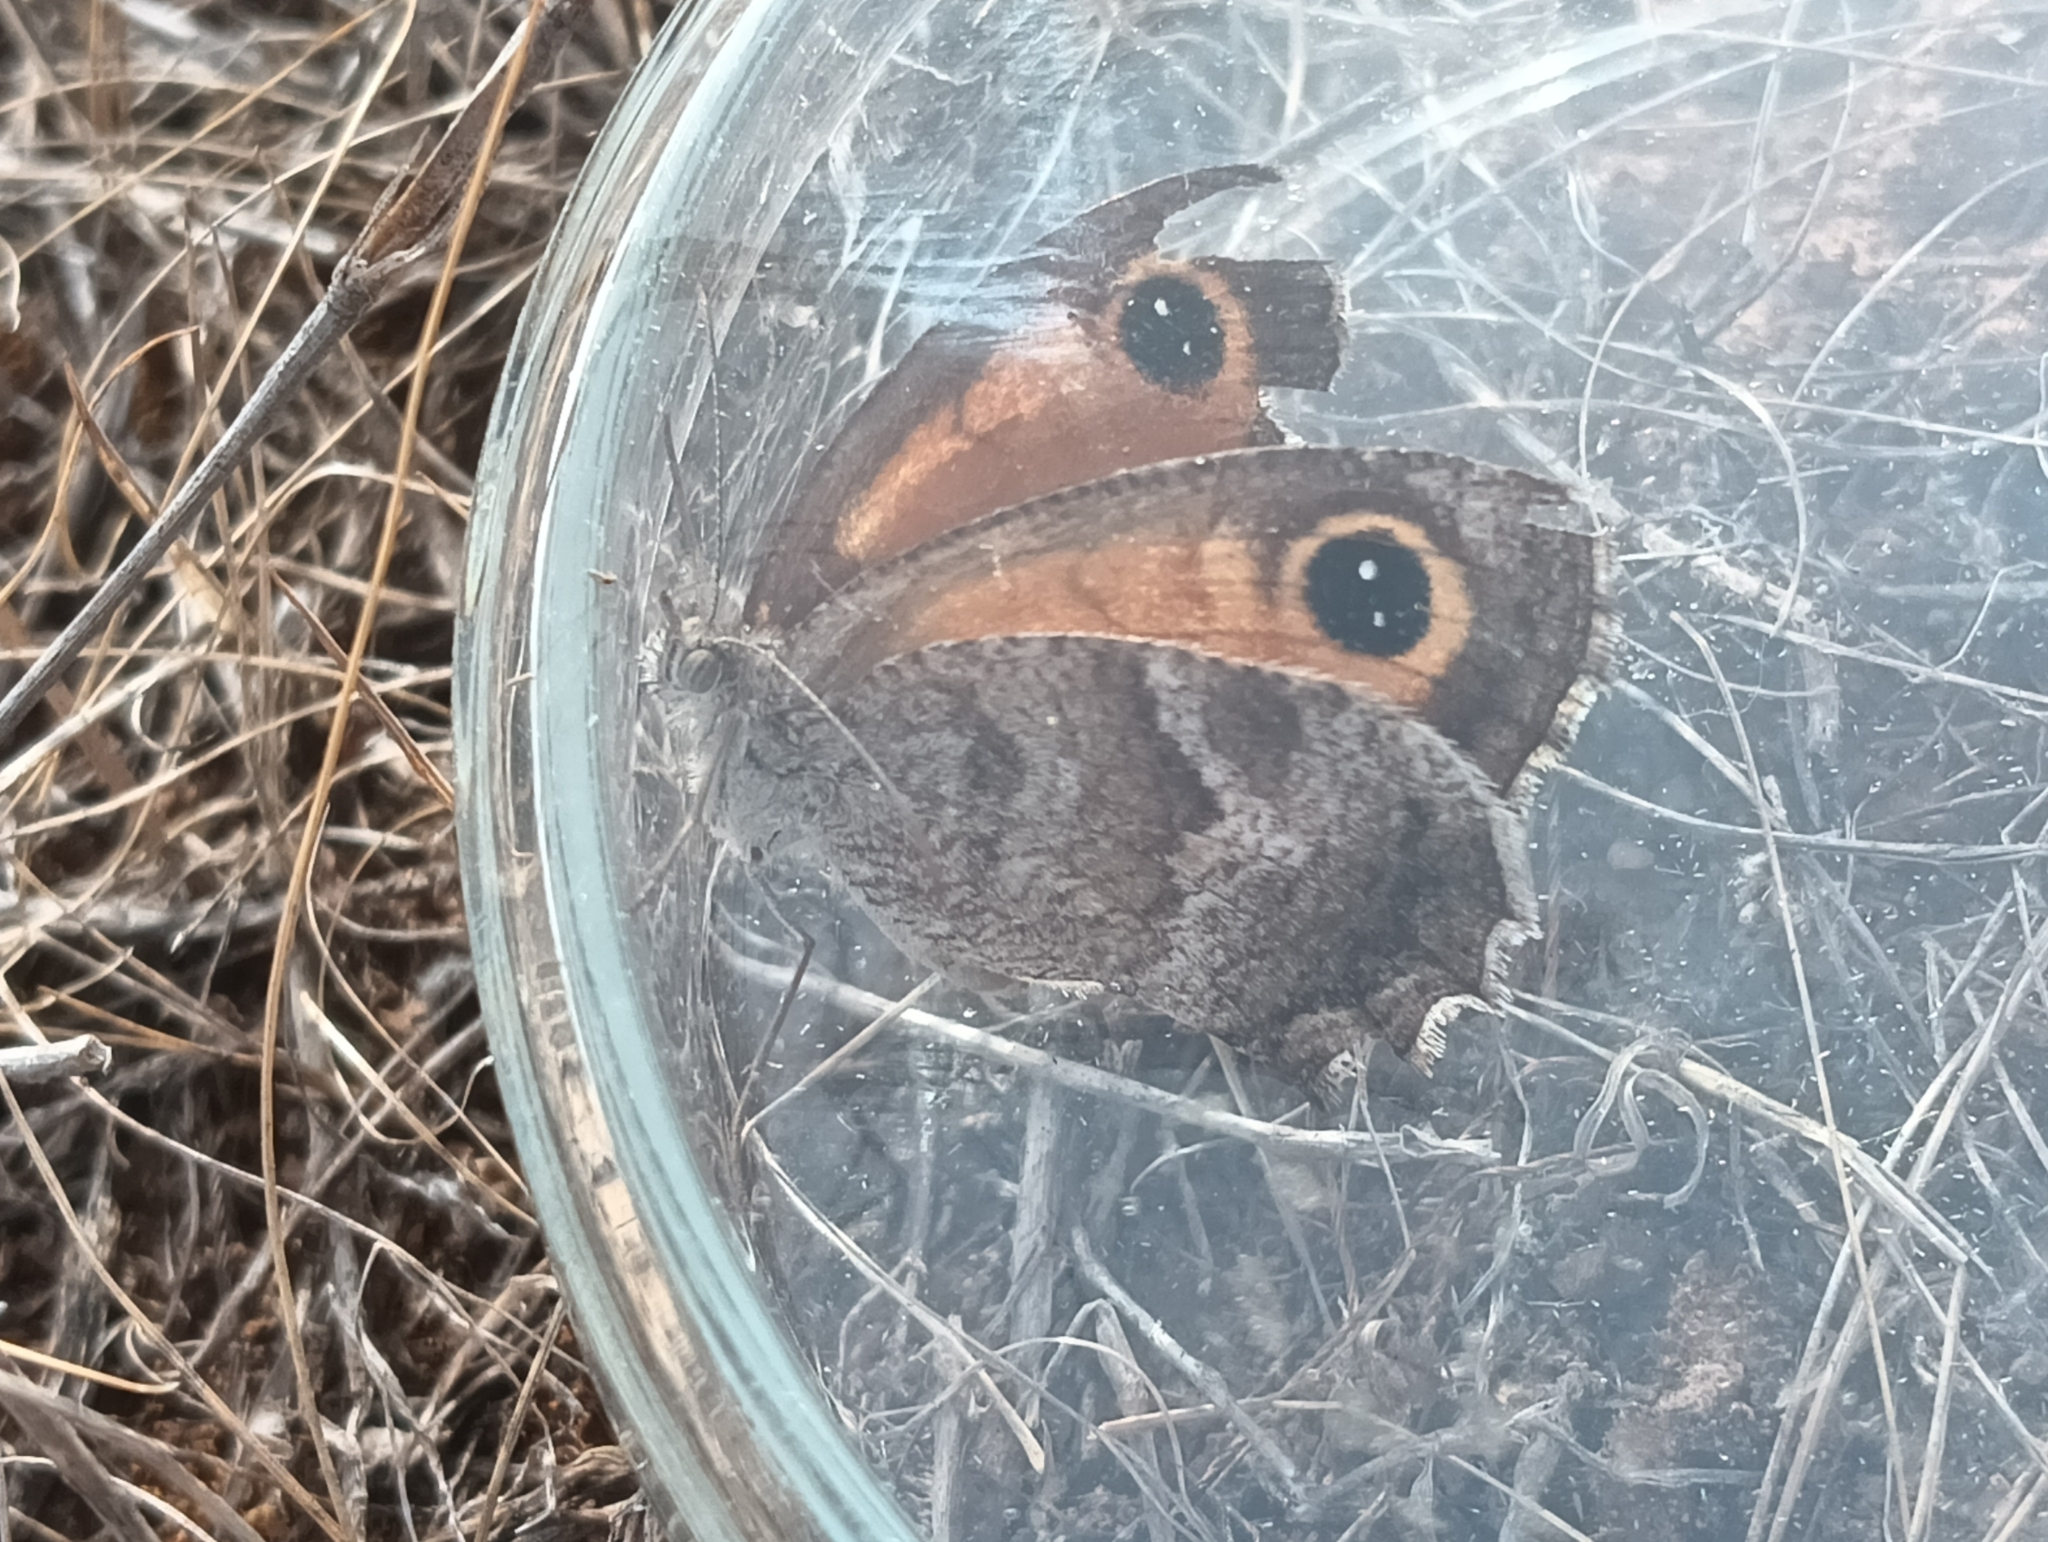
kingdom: Animalia
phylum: Arthropoda
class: Insecta
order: Lepidoptera
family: Nymphalidae
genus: Pyronia
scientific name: Pyronia cecilia
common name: Southern gatekeeper
